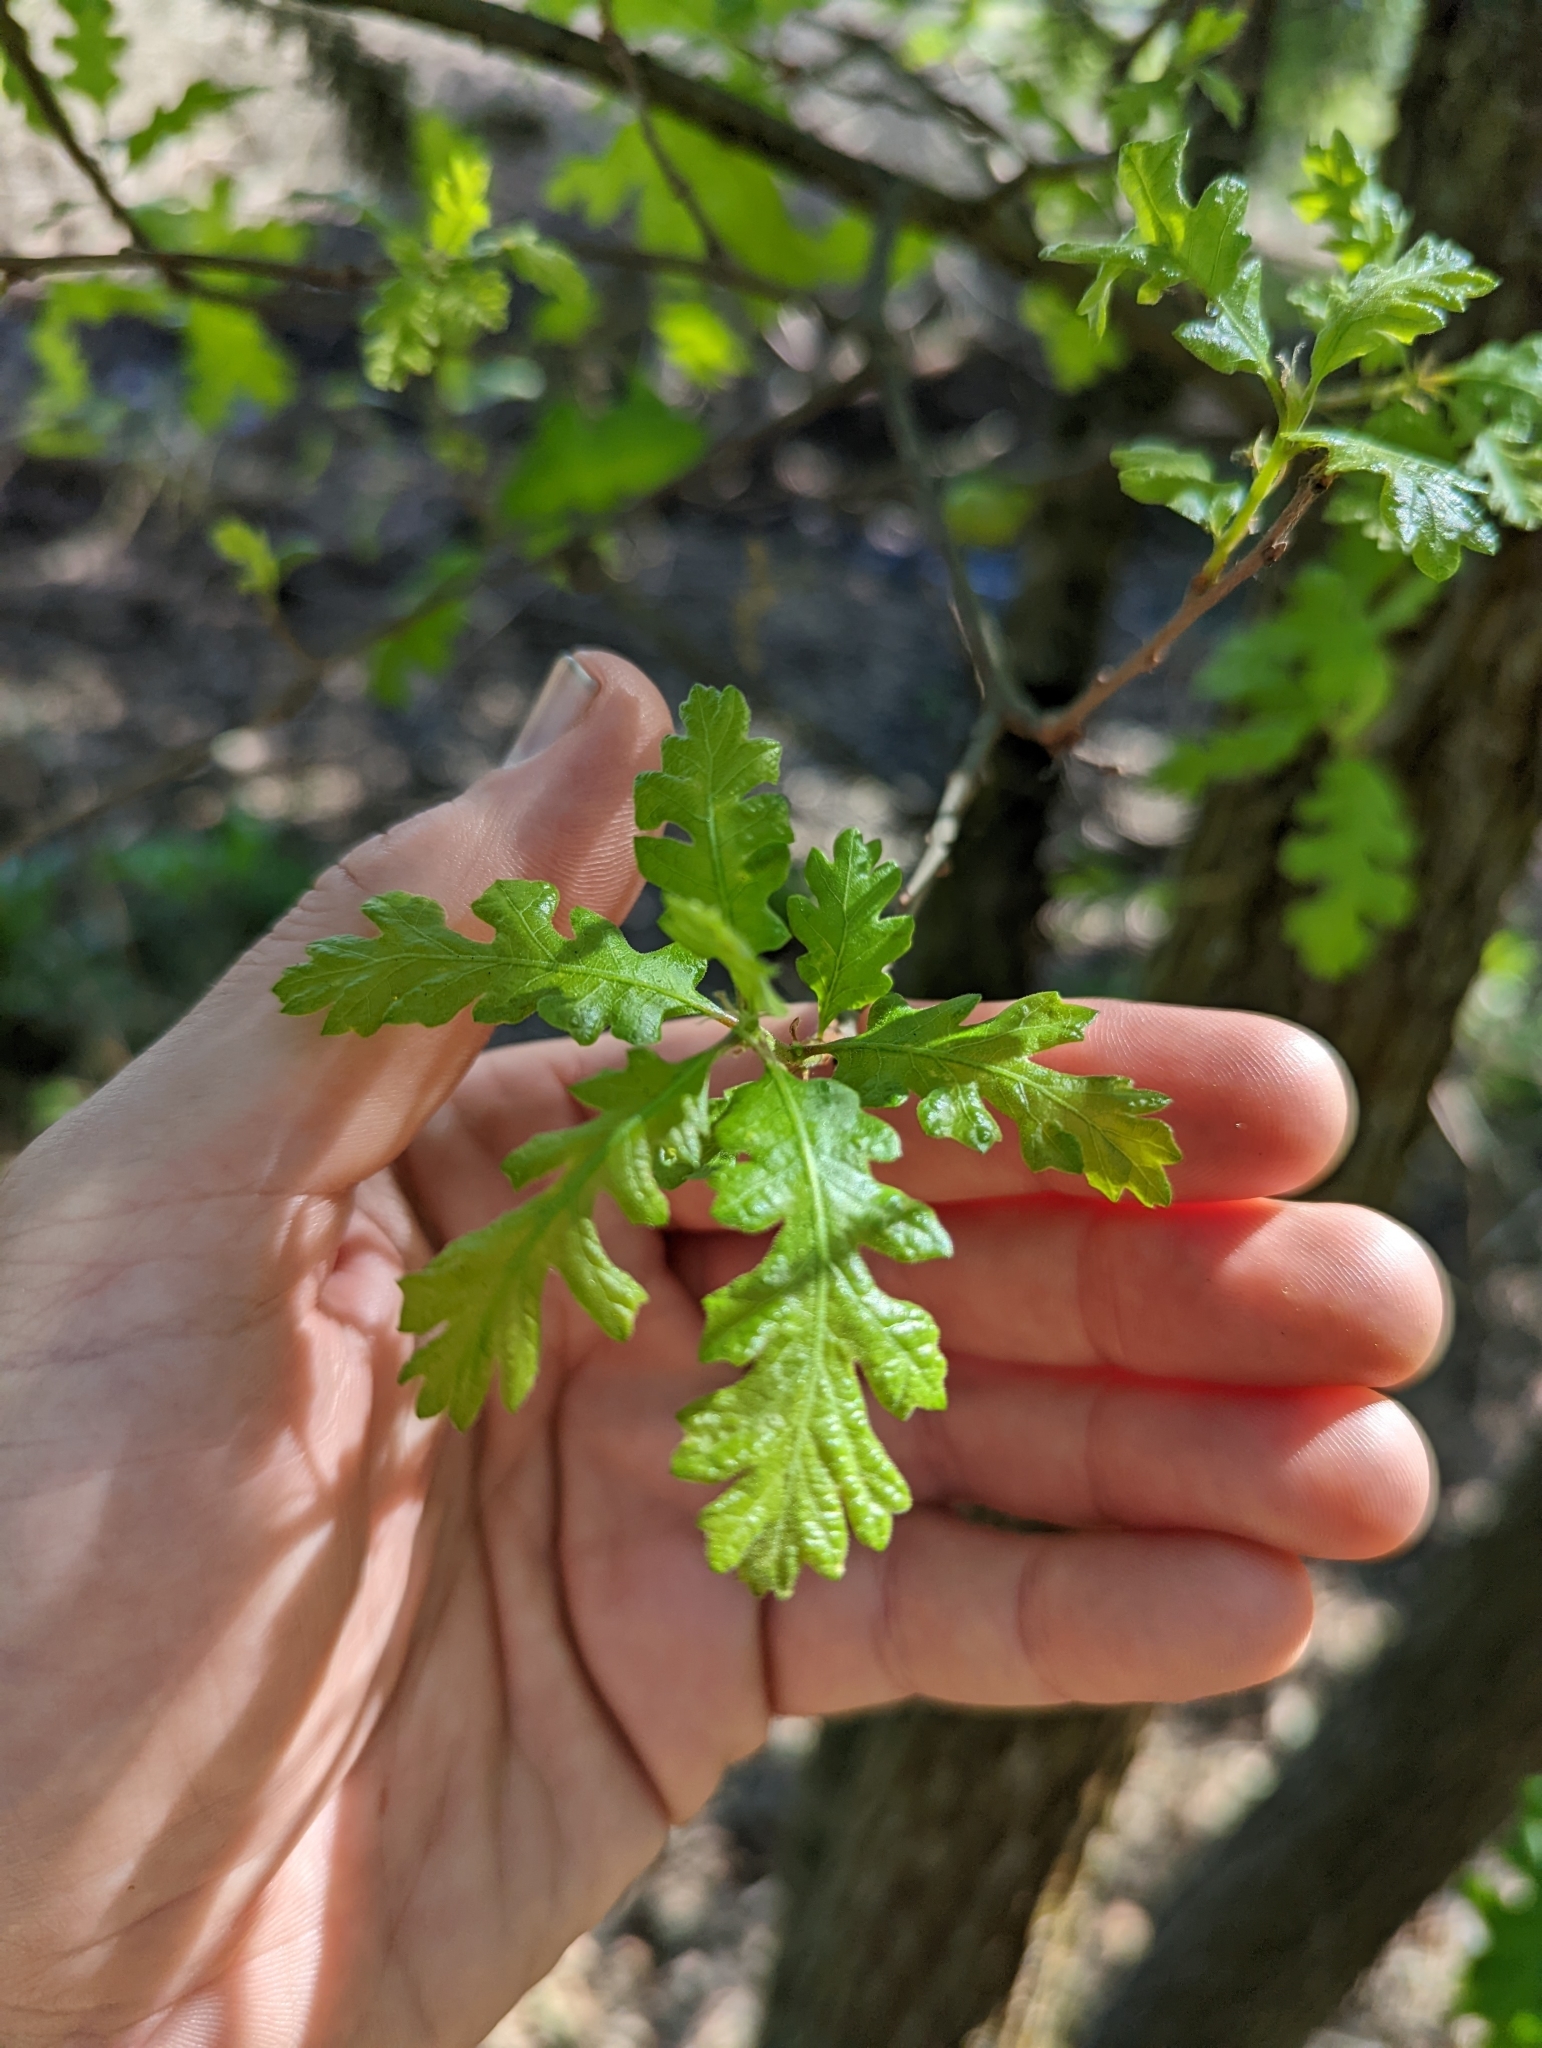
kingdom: Plantae
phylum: Tracheophyta
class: Magnoliopsida
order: Fagales
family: Fagaceae
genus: Quercus
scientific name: Quercus lobata
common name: Valley oak
